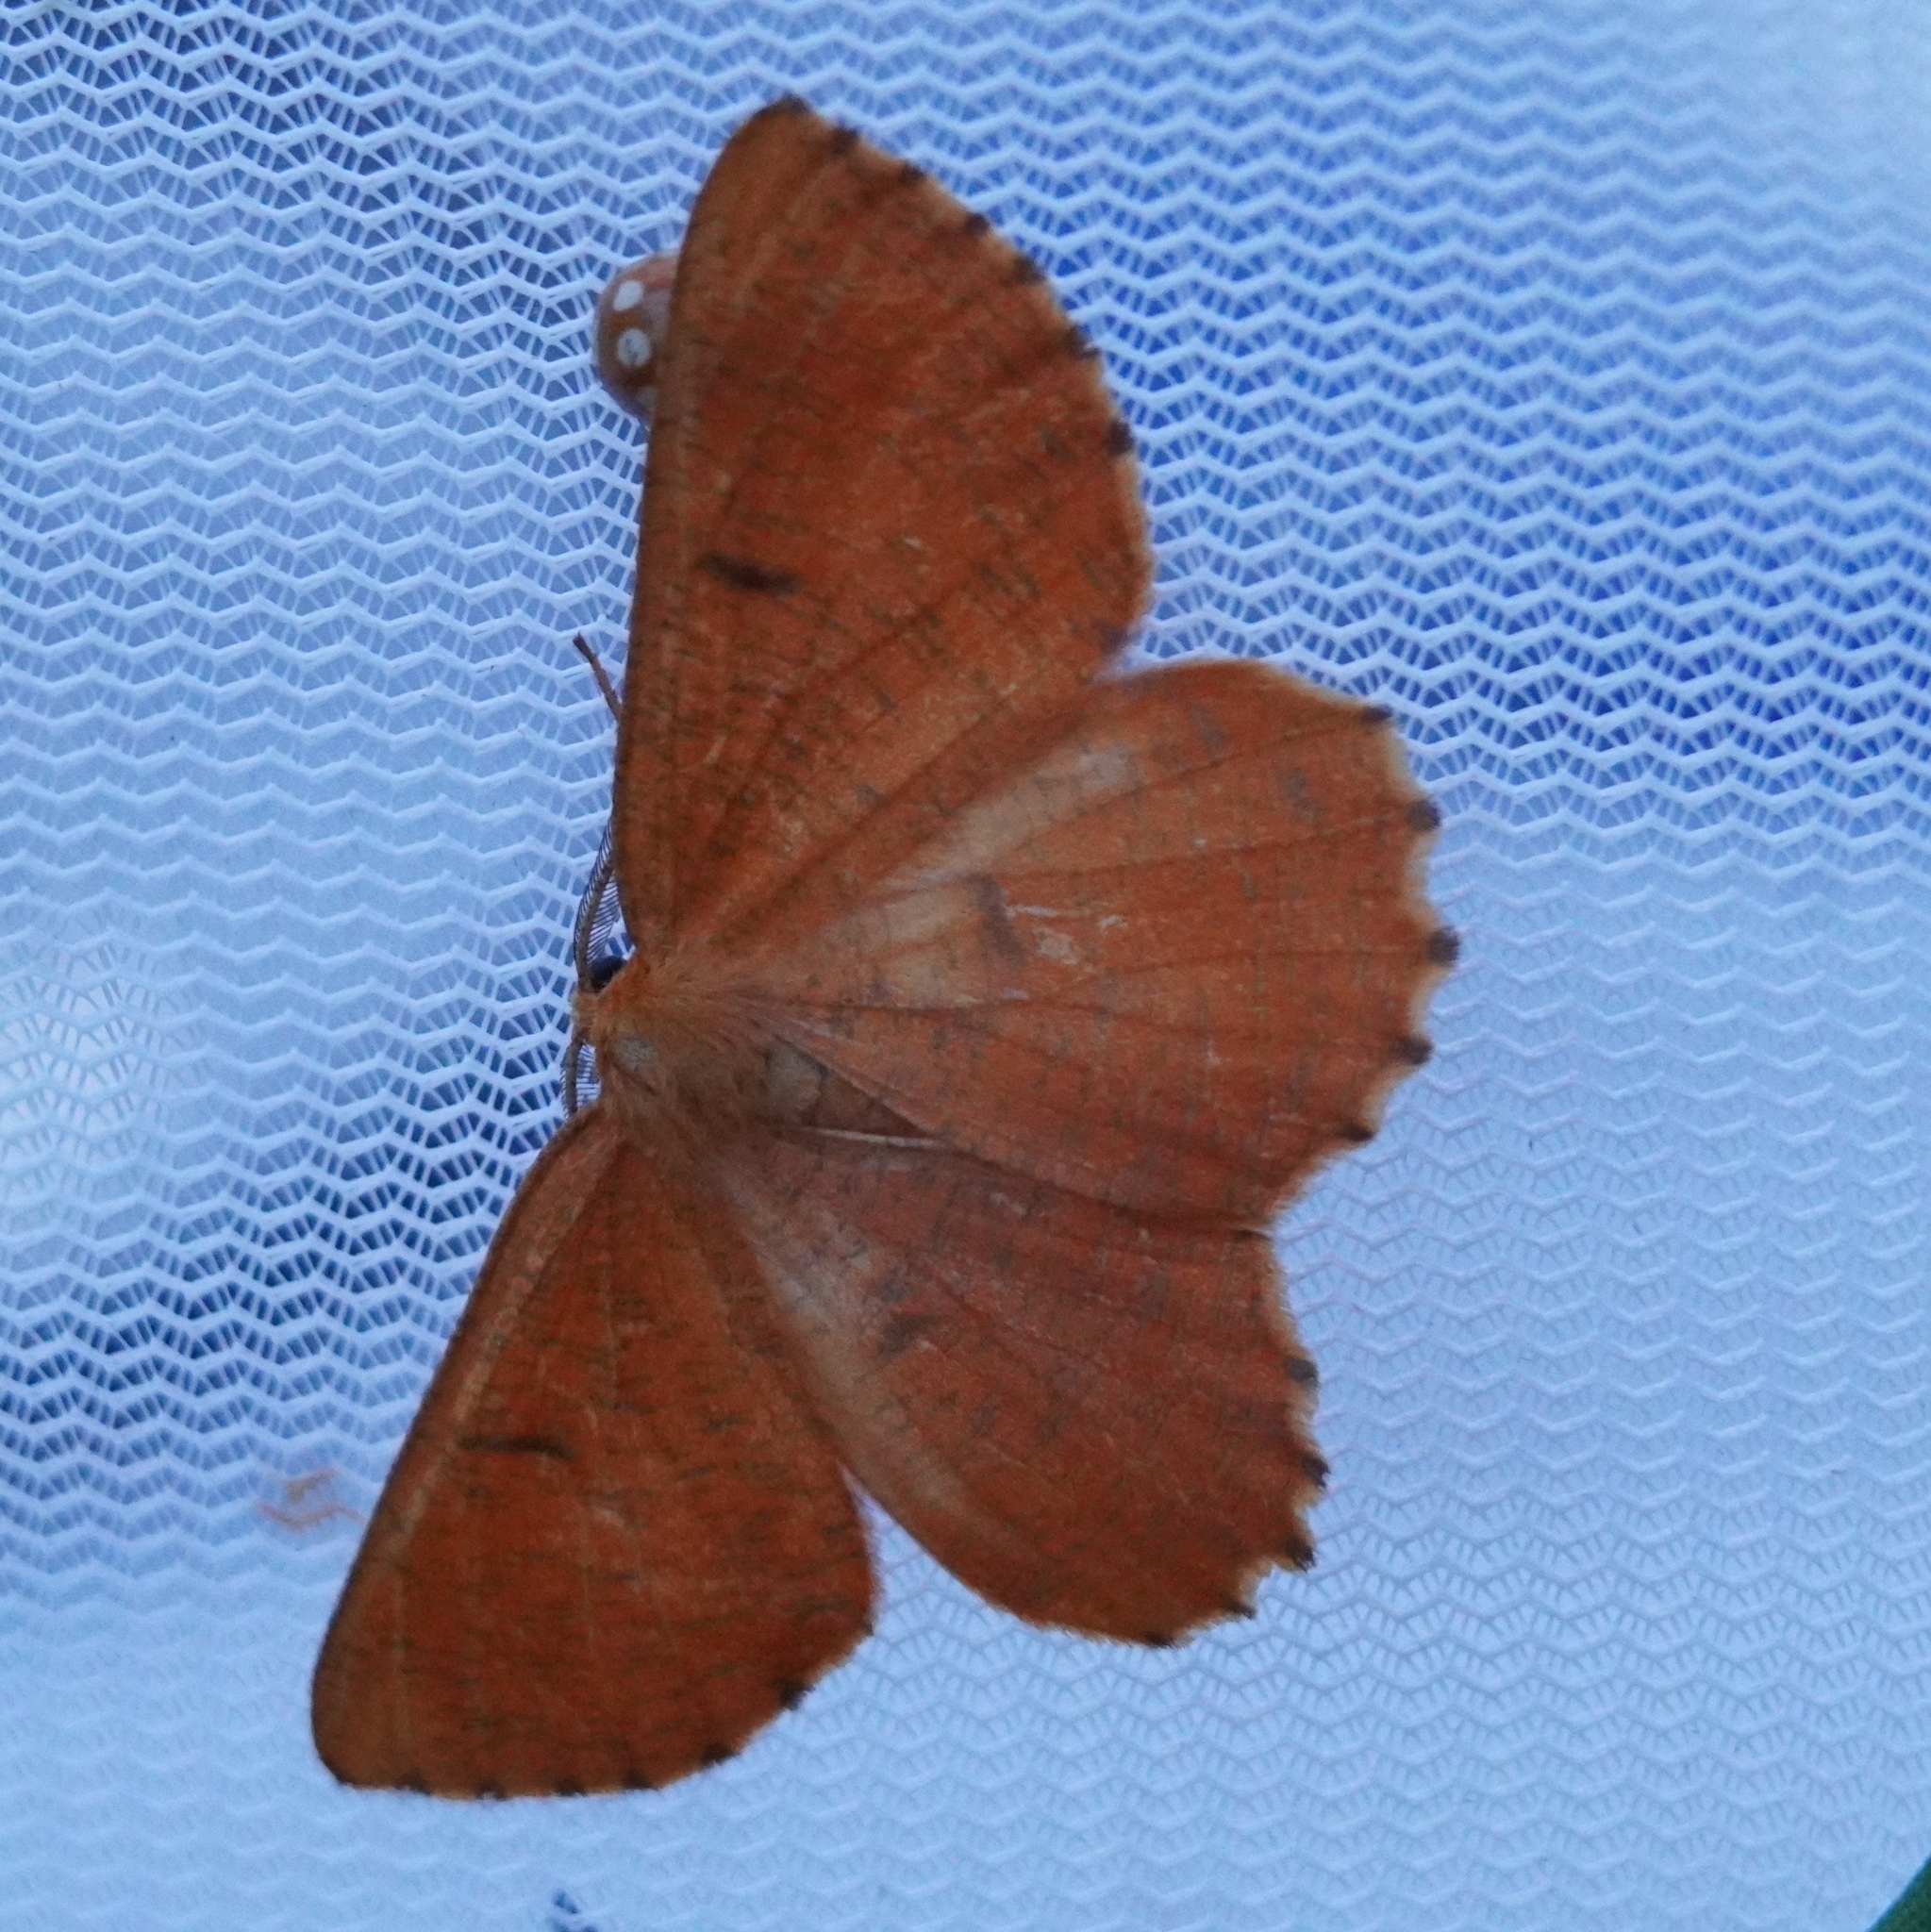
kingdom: Animalia
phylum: Arthropoda
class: Insecta
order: Lepidoptera
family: Geometridae
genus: Angerona
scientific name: Angerona prunaria
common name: Orange moth
